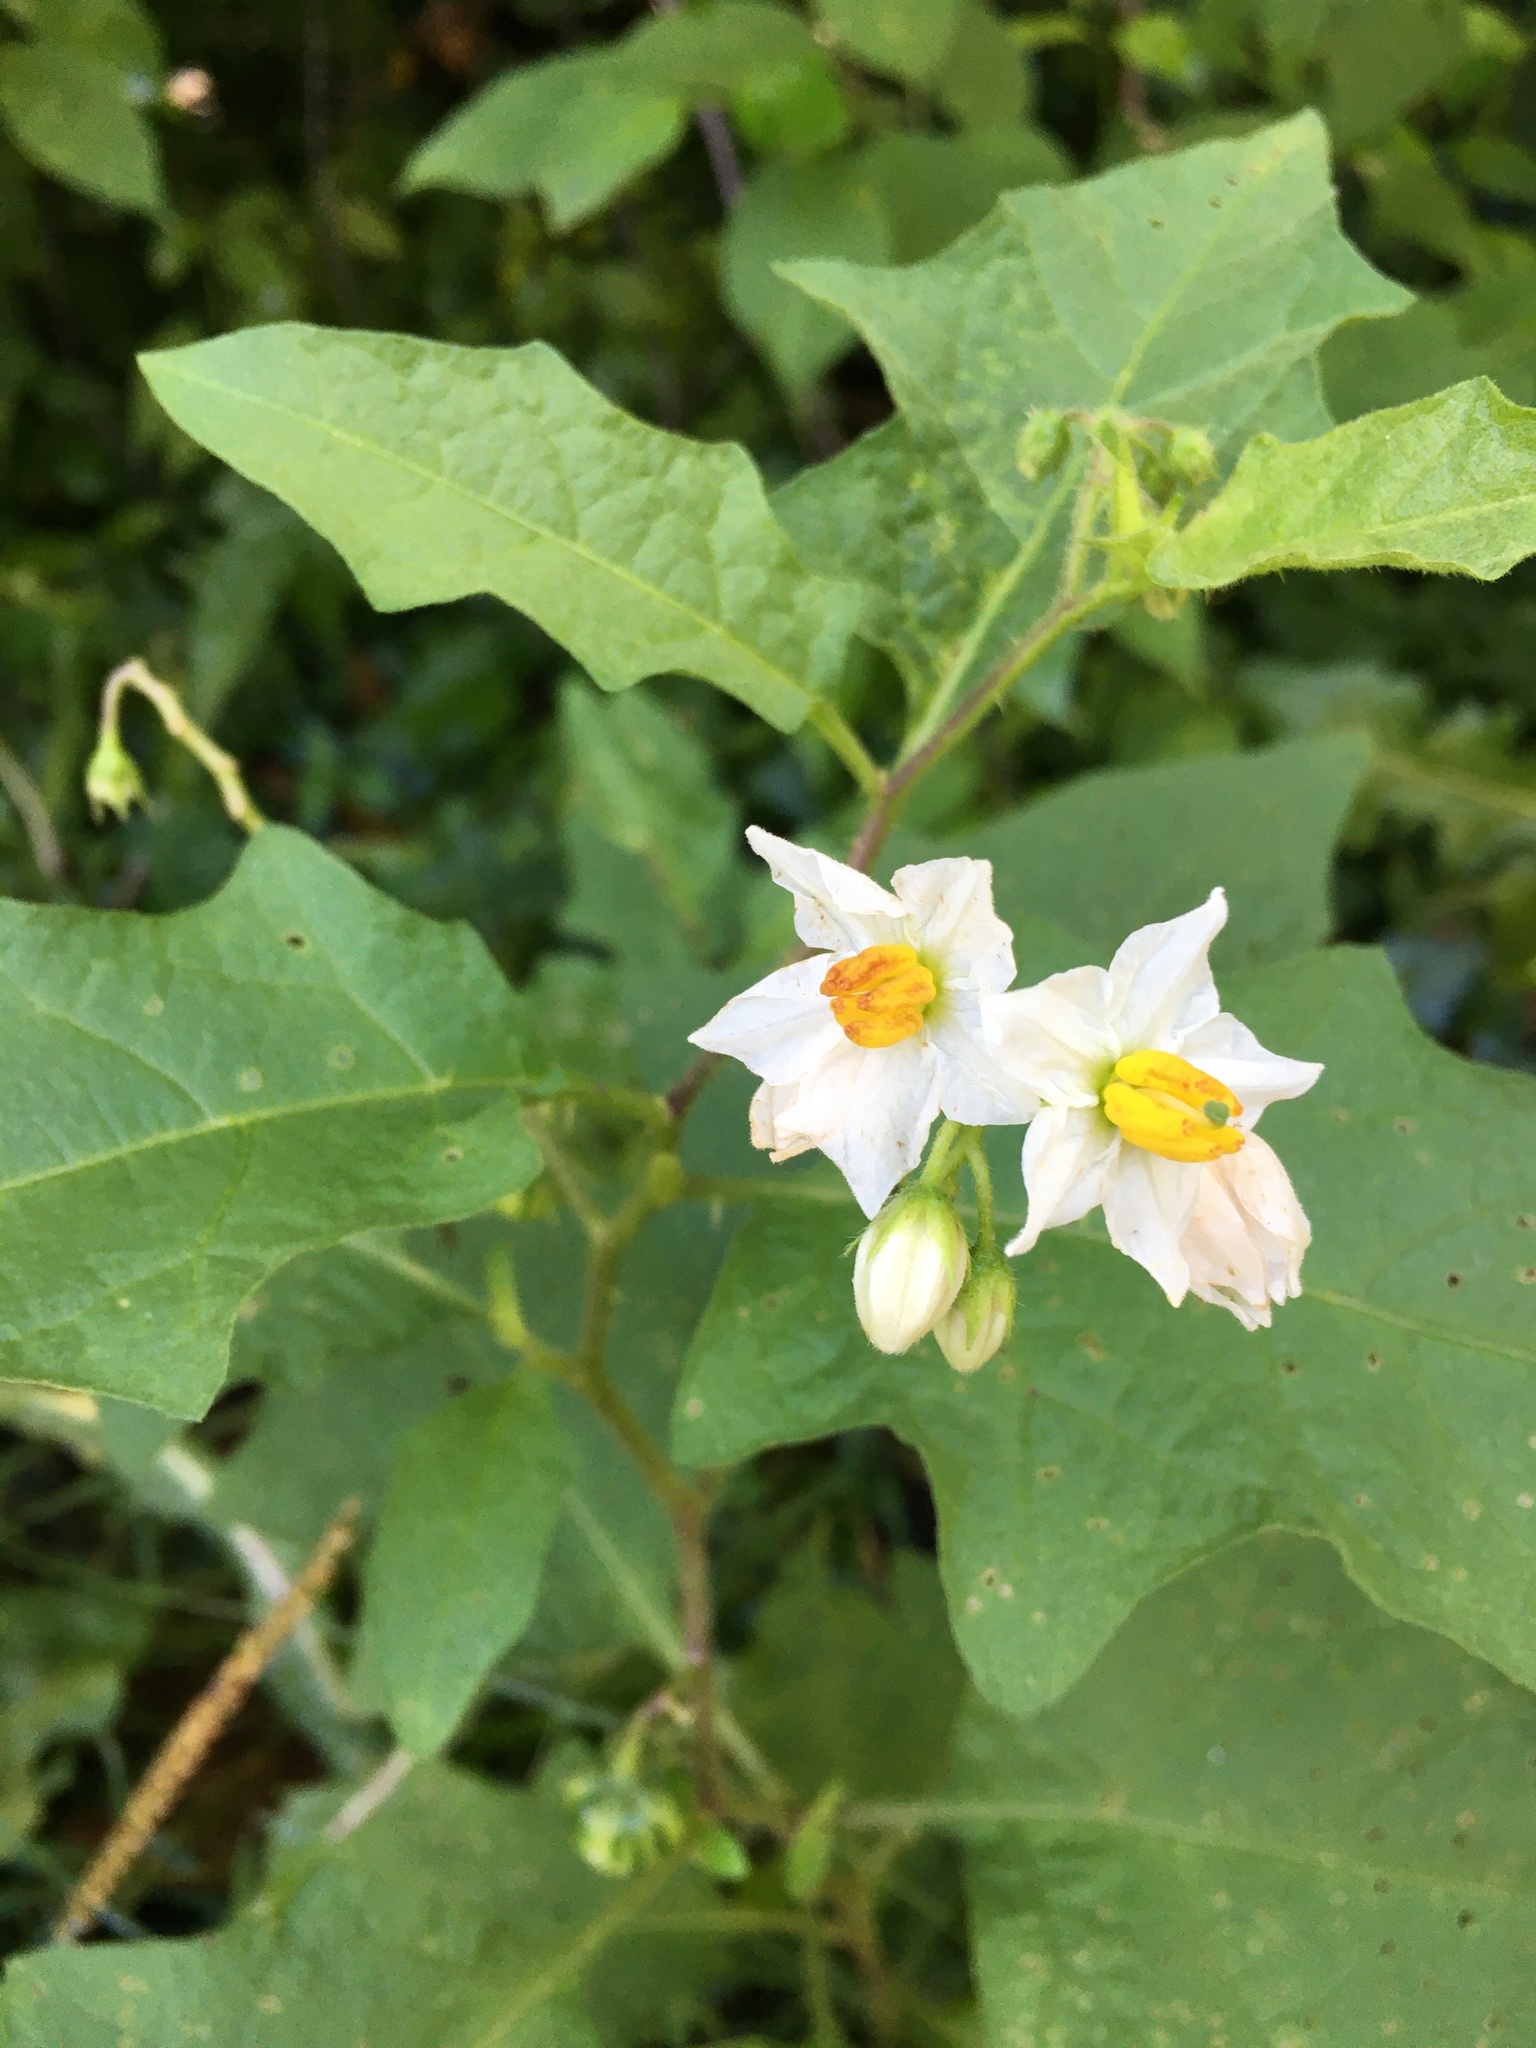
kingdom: Plantae
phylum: Tracheophyta
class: Magnoliopsida
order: Solanales
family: Solanaceae
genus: Solanum
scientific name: Solanum carolinense
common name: Horse-nettle
